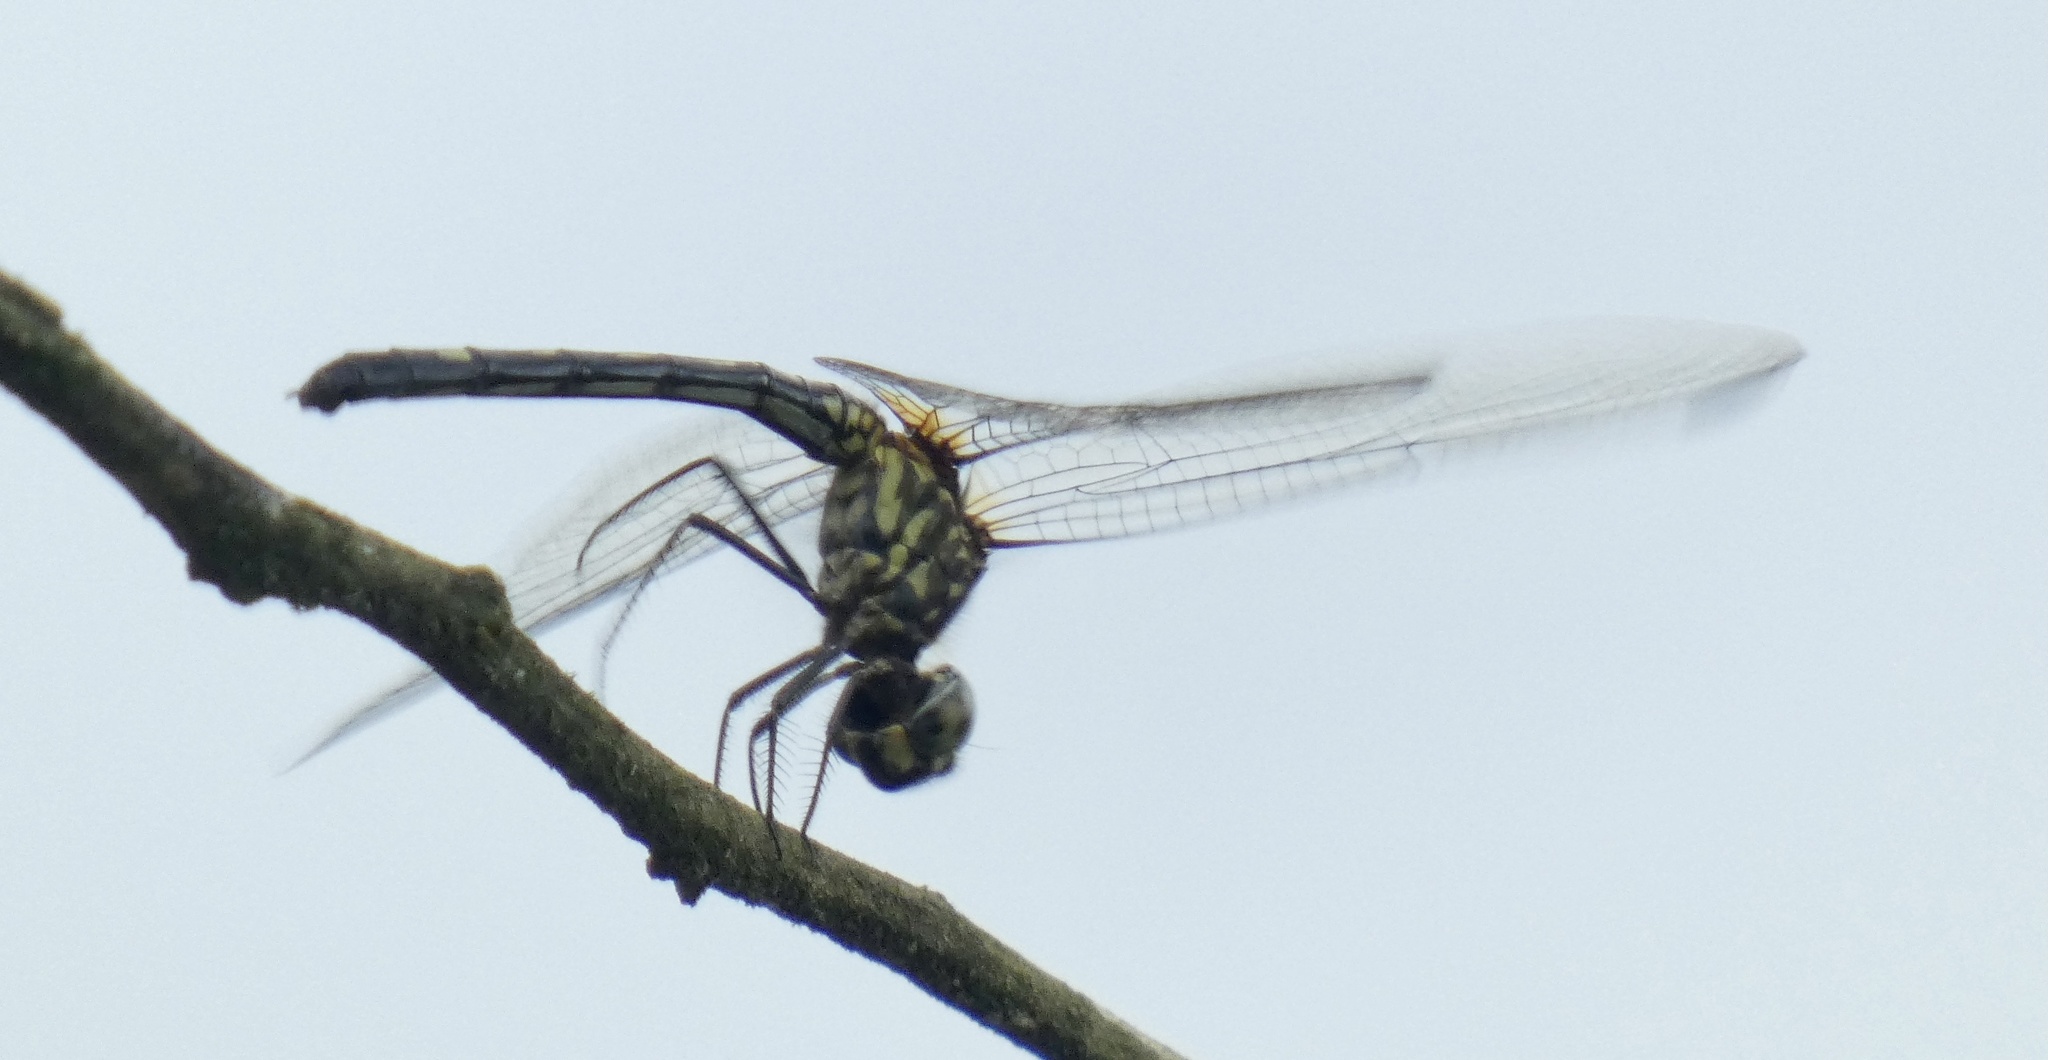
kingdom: Animalia
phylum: Arthropoda
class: Insecta
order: Odonata
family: Libellulidae
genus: Dythemis
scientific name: Dythemis nigra
